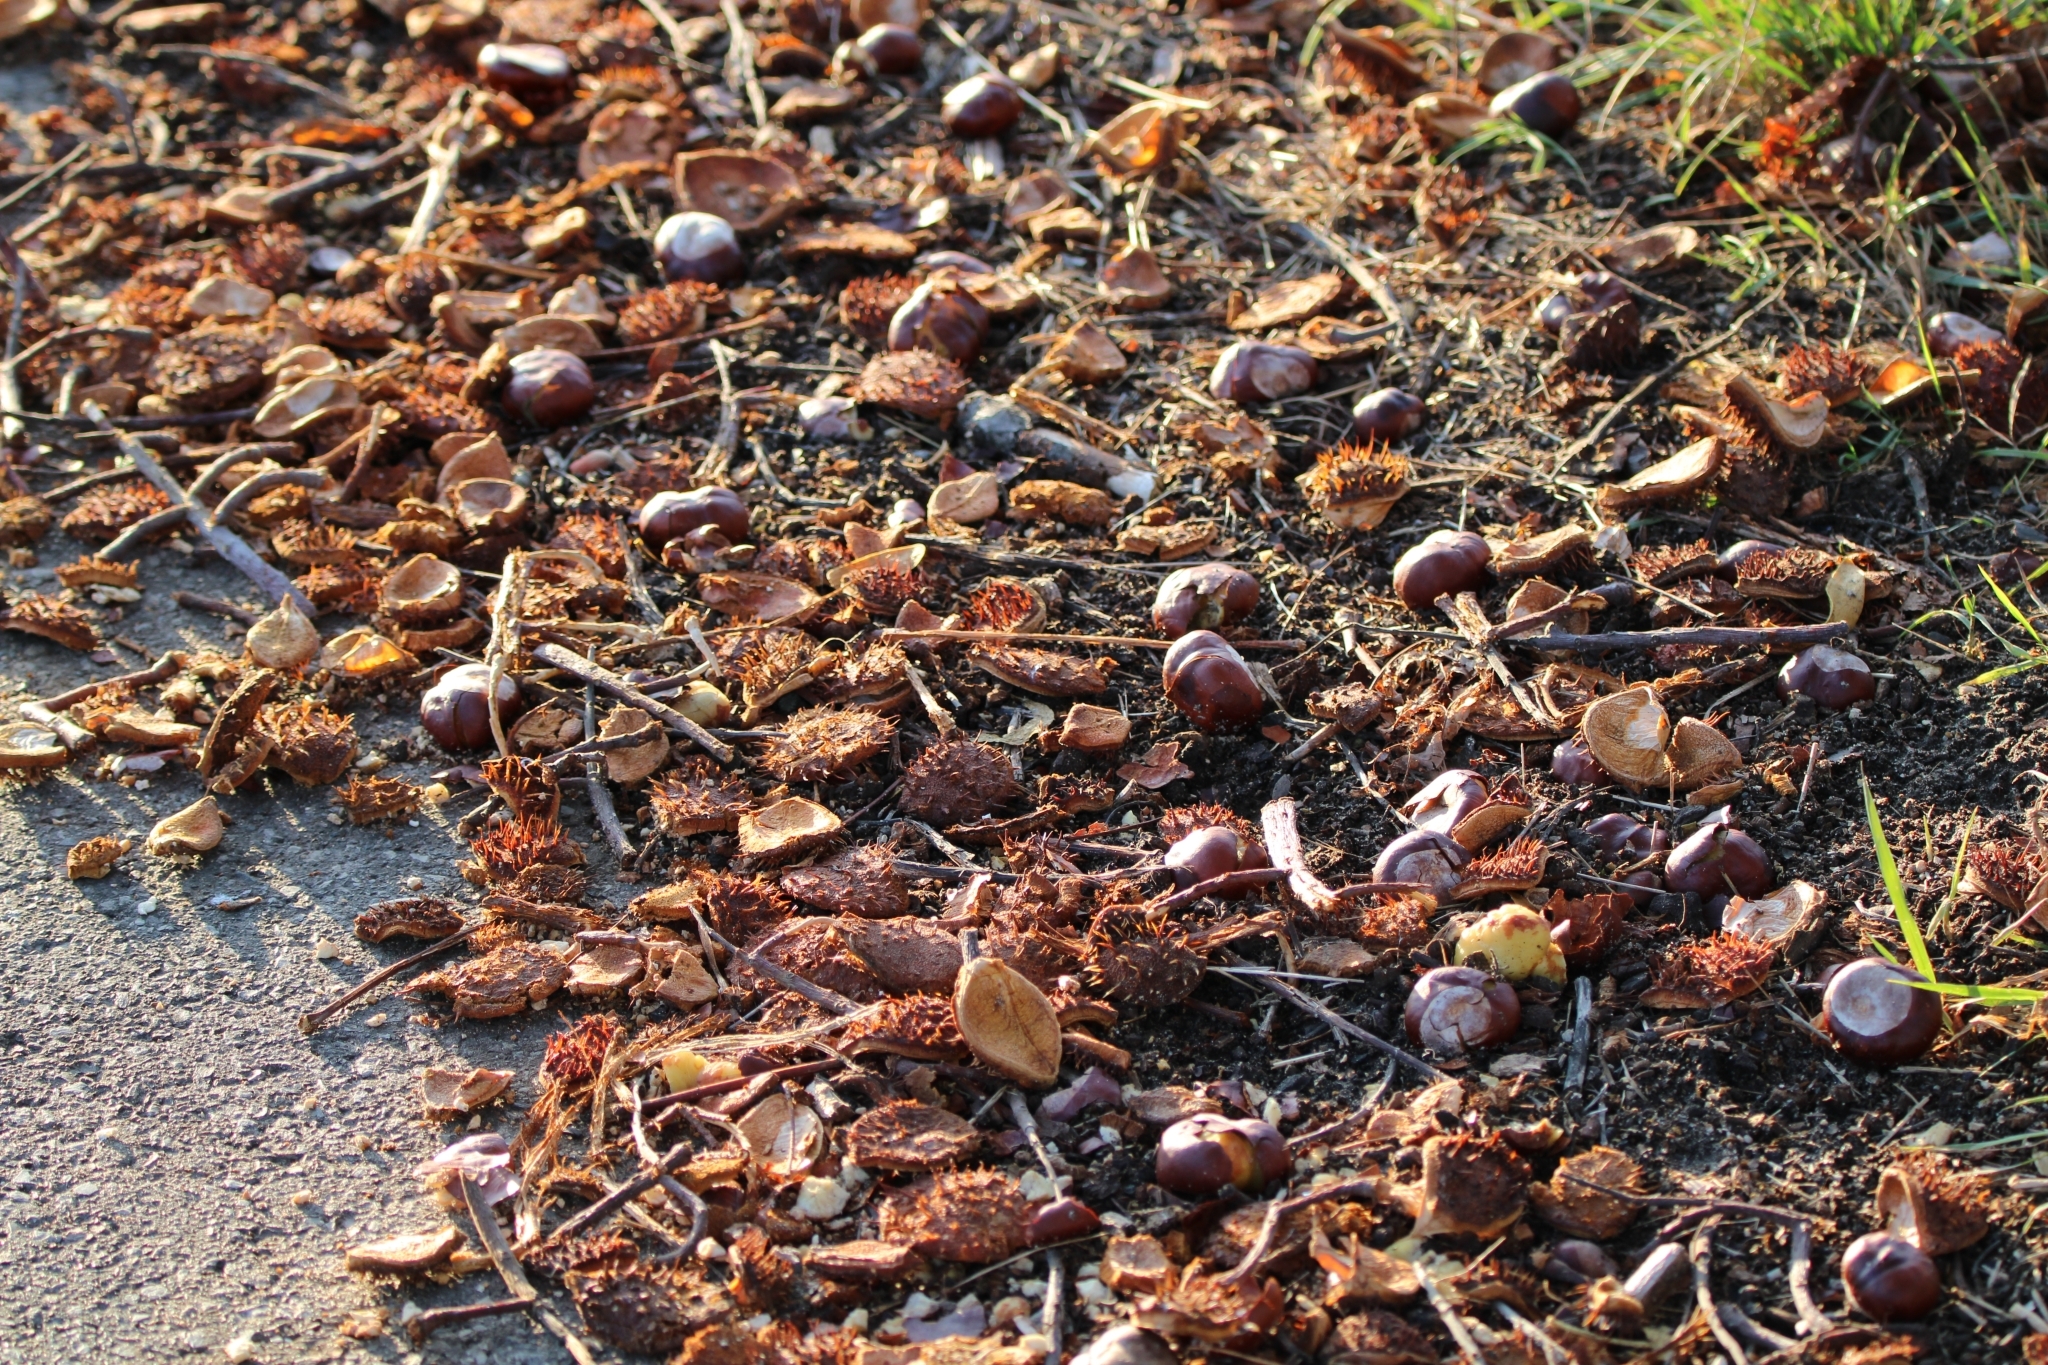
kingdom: Plantae
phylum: Tracheophyta
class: Magnoliopsida
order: Sapindales
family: Sapindaceae
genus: Aesculus
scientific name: Aesculus hippocastanum
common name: Horse-chestnut
